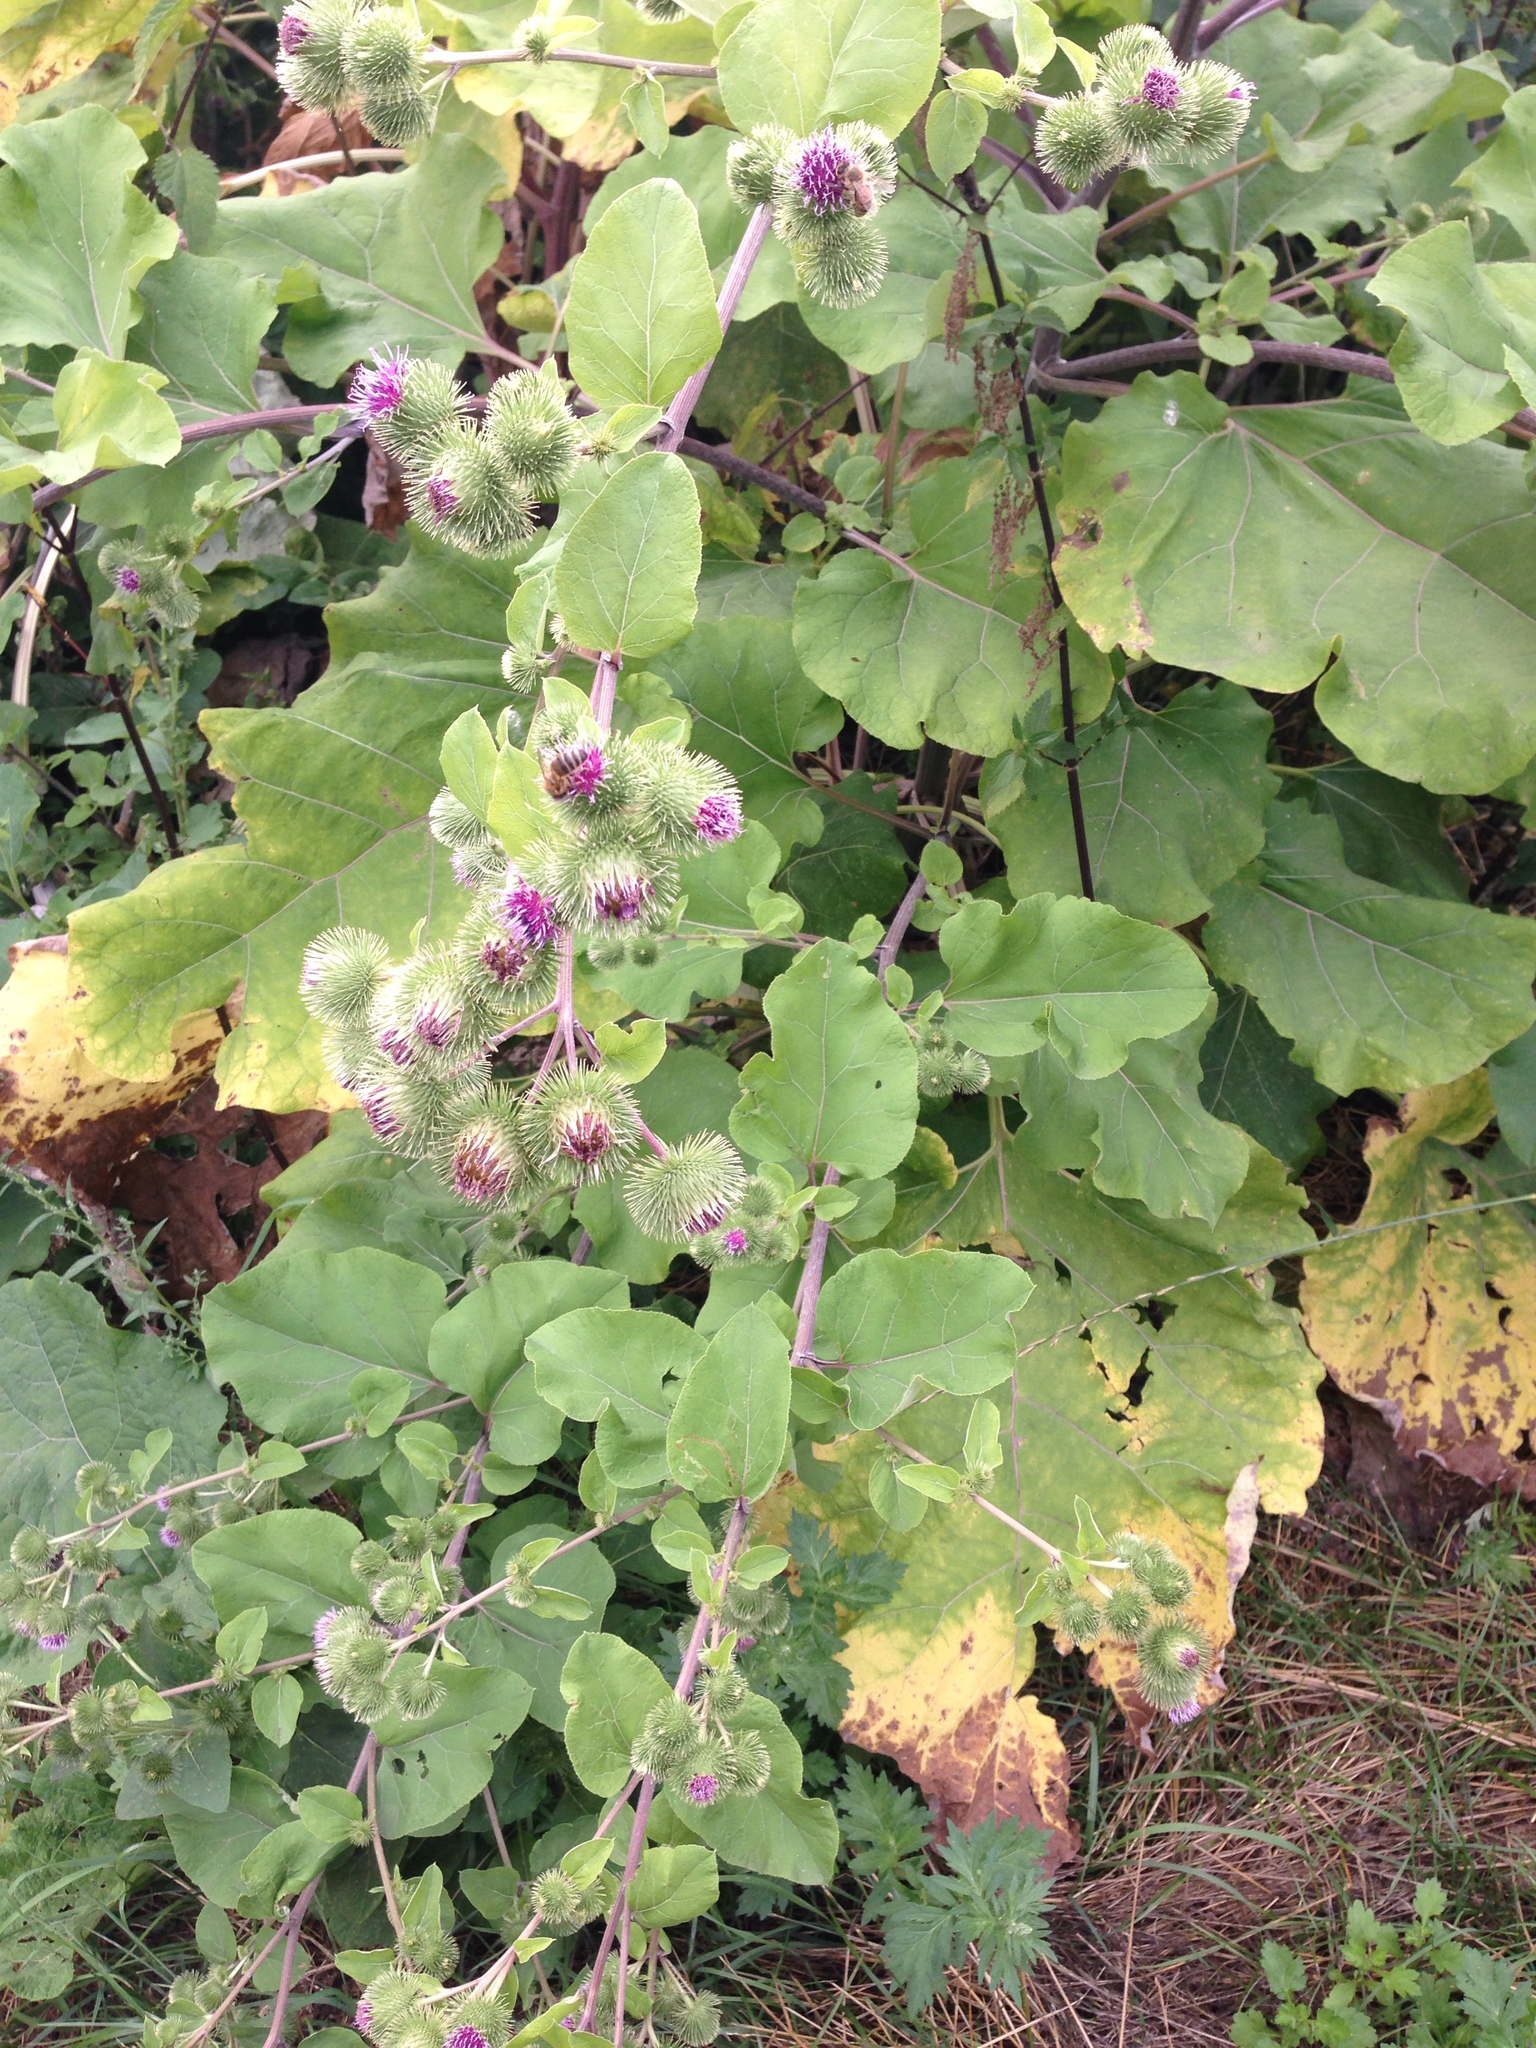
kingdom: Plantae
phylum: Tracheophyta
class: Magnoliopsida
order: Asterales
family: Asteraceae
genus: Arctium
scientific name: Arctium lappa
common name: Greater burdock
